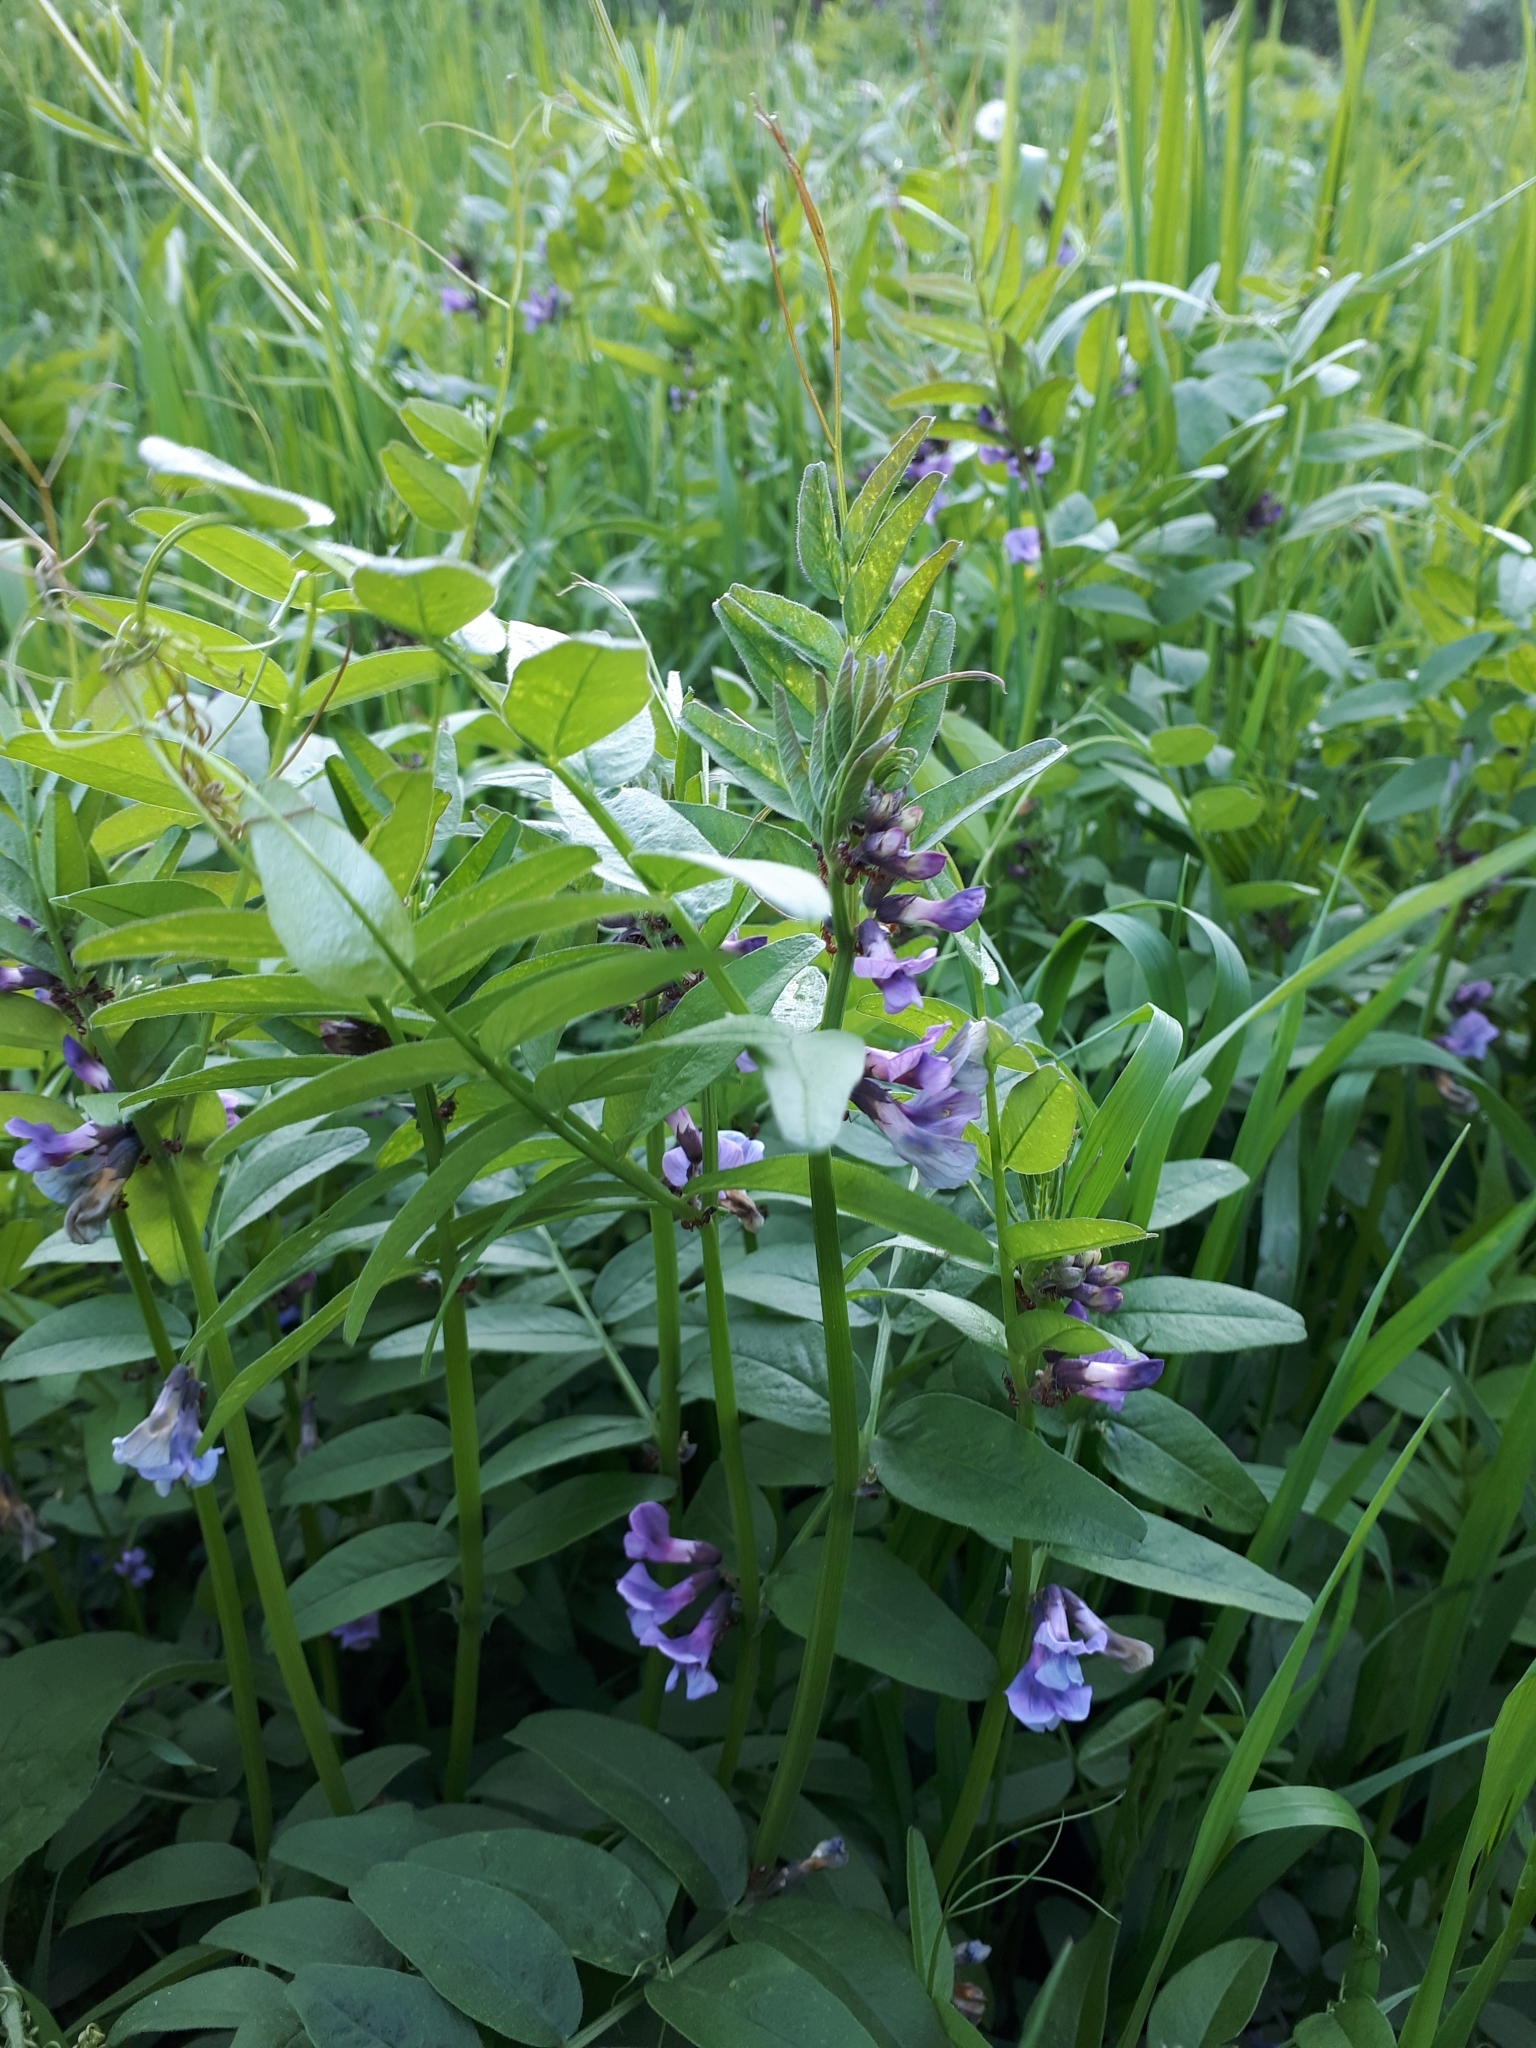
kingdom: Plantae
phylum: Tracheophyta
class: Magnoliopsida
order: Fabales
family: Fabaceae
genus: Vicia
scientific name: Vicia sepium
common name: Bush vetch
